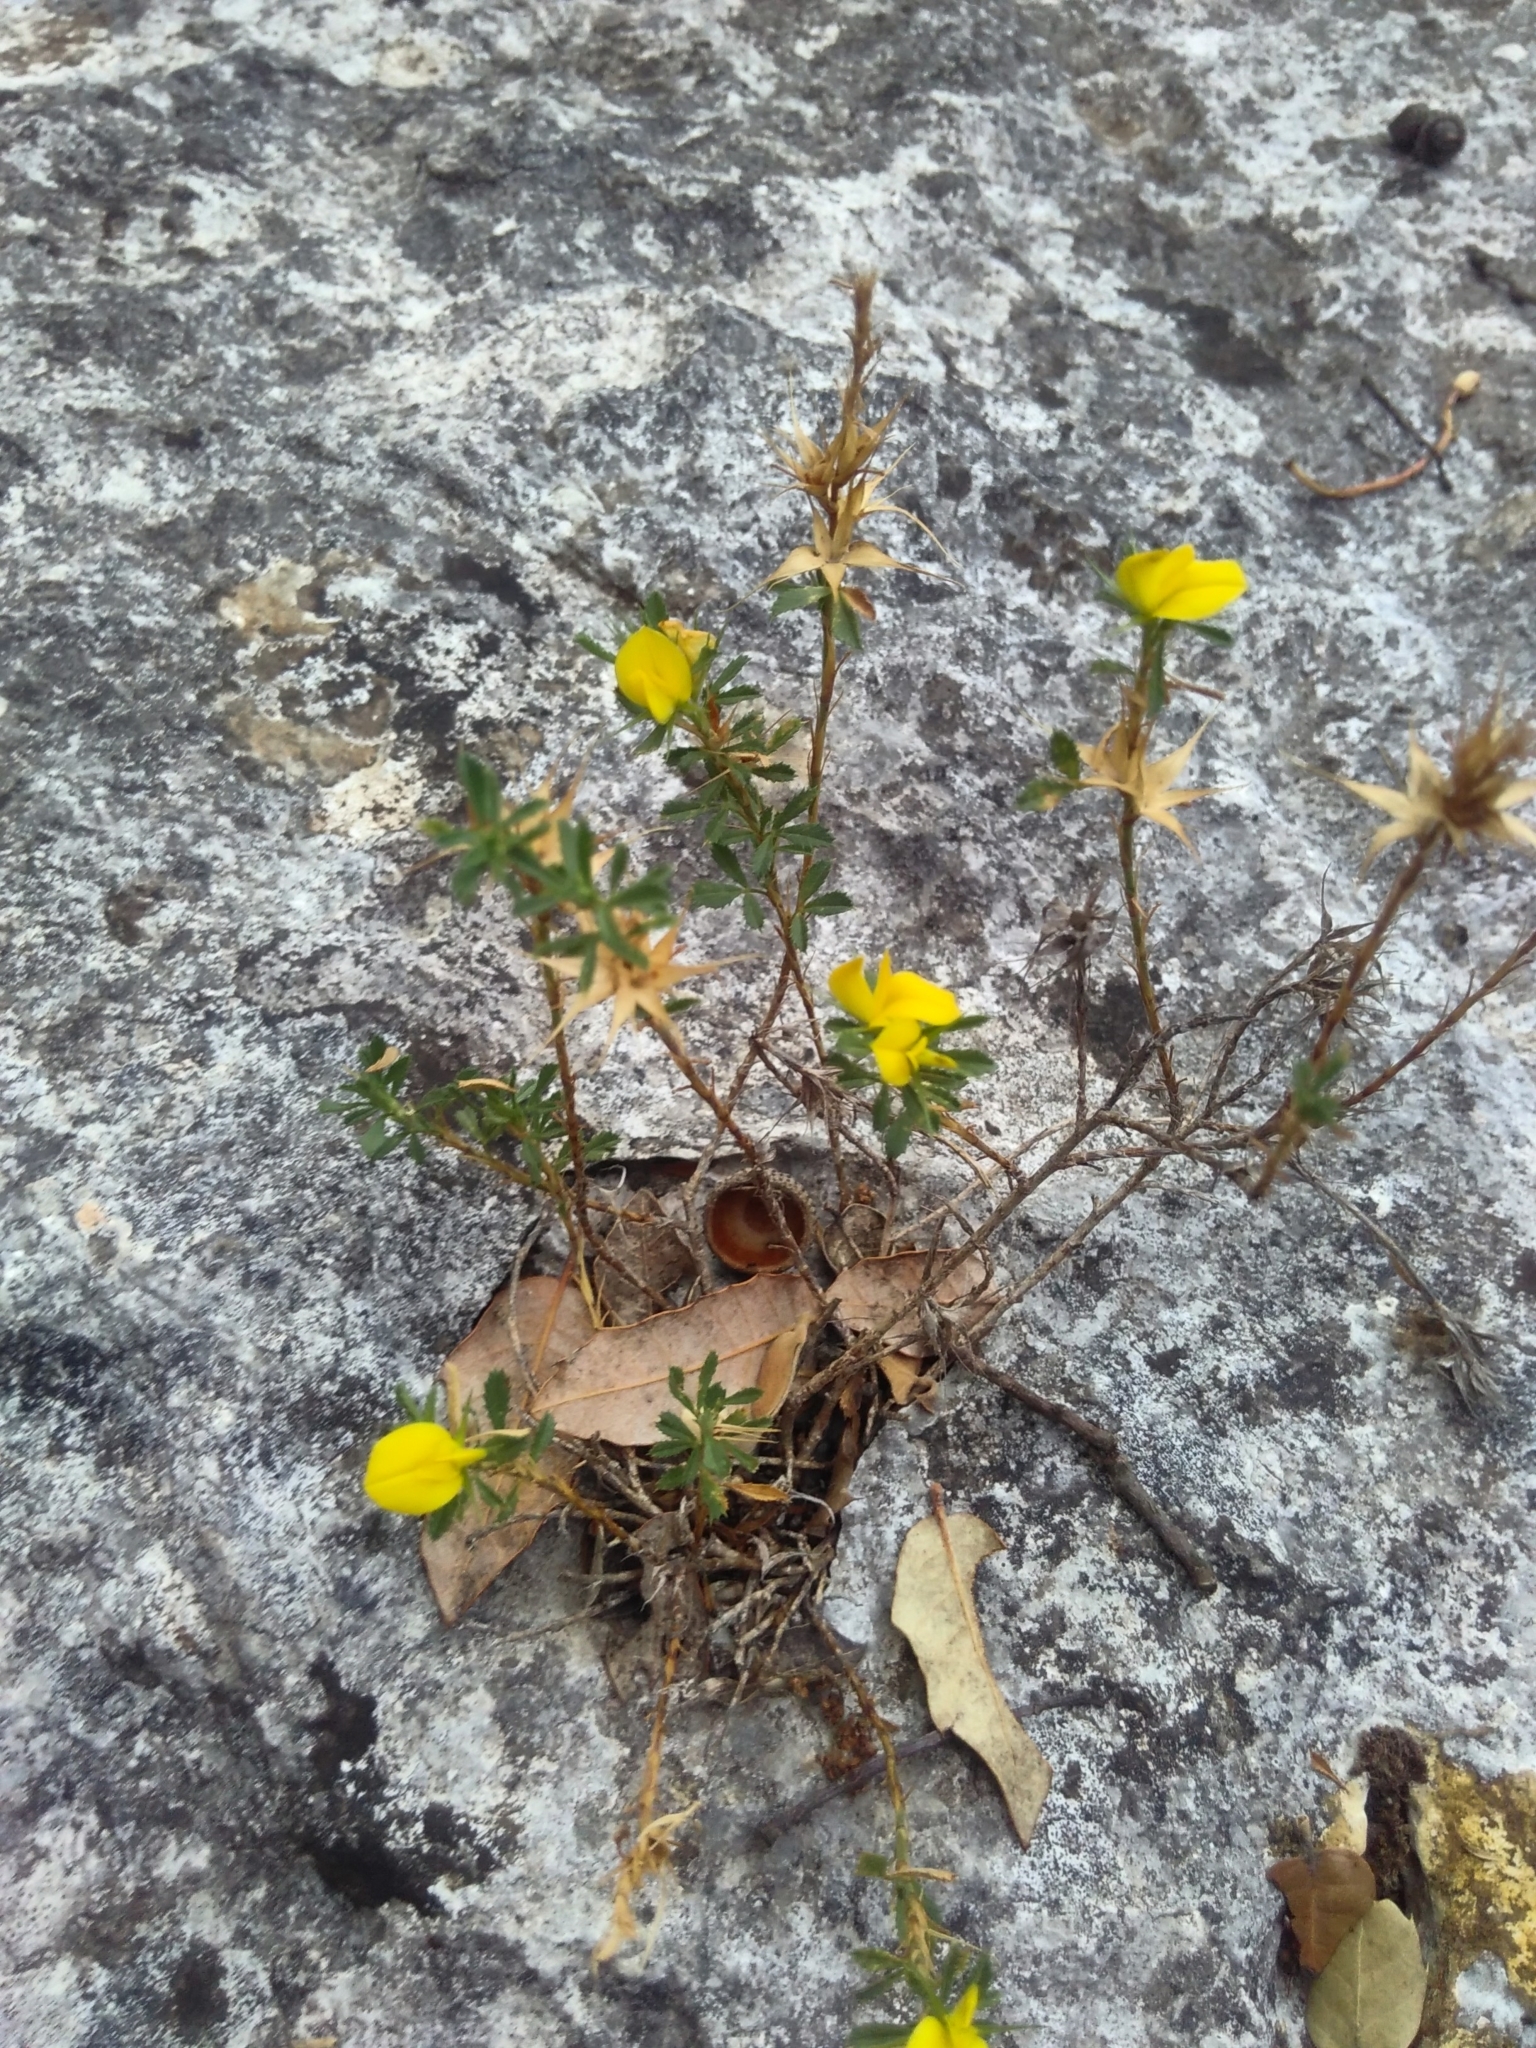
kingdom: Plantae
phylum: Tracheophyta
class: Magnoliopsida
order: Fabales
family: Fabaceae
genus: Ononis
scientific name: Ononis minutissima
